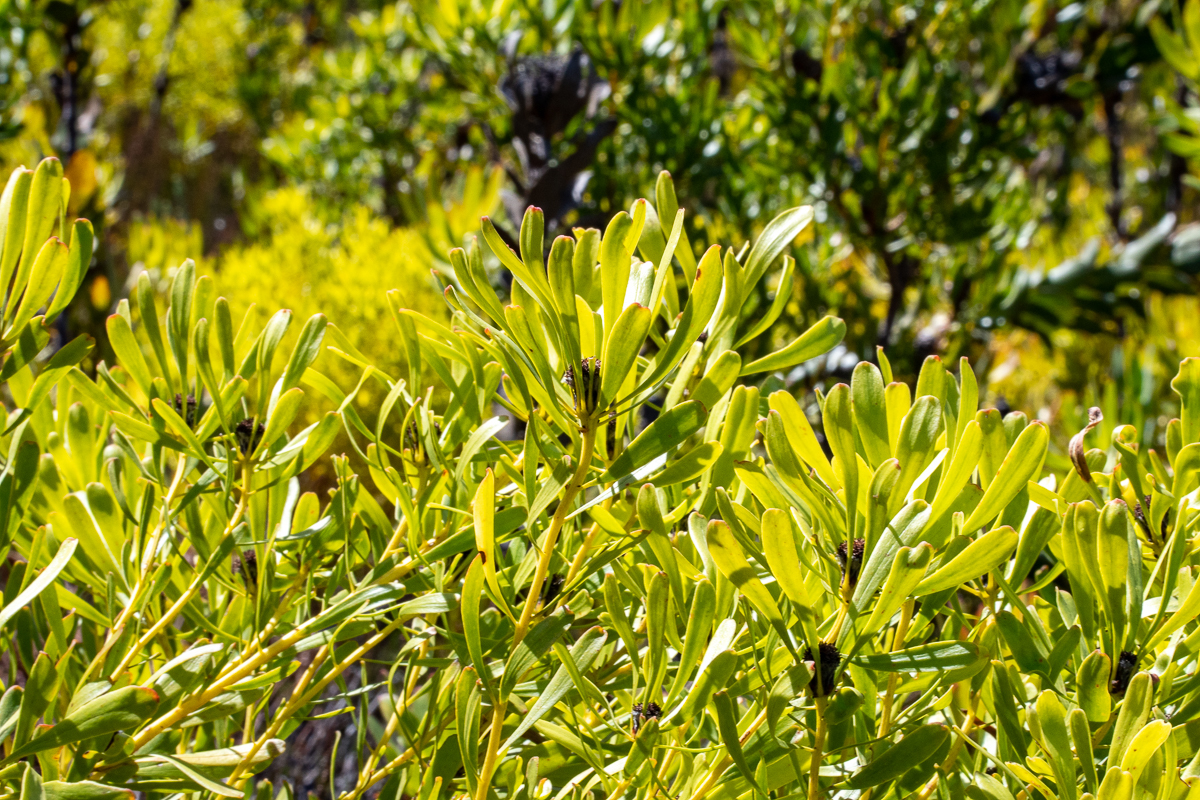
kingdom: Plantae
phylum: Tracheophyta
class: Magnoliopsida
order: Proteales
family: Proteaceae
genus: Leucadendron
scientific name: Leucadendron platyspermum
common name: Plate-seed conebush
